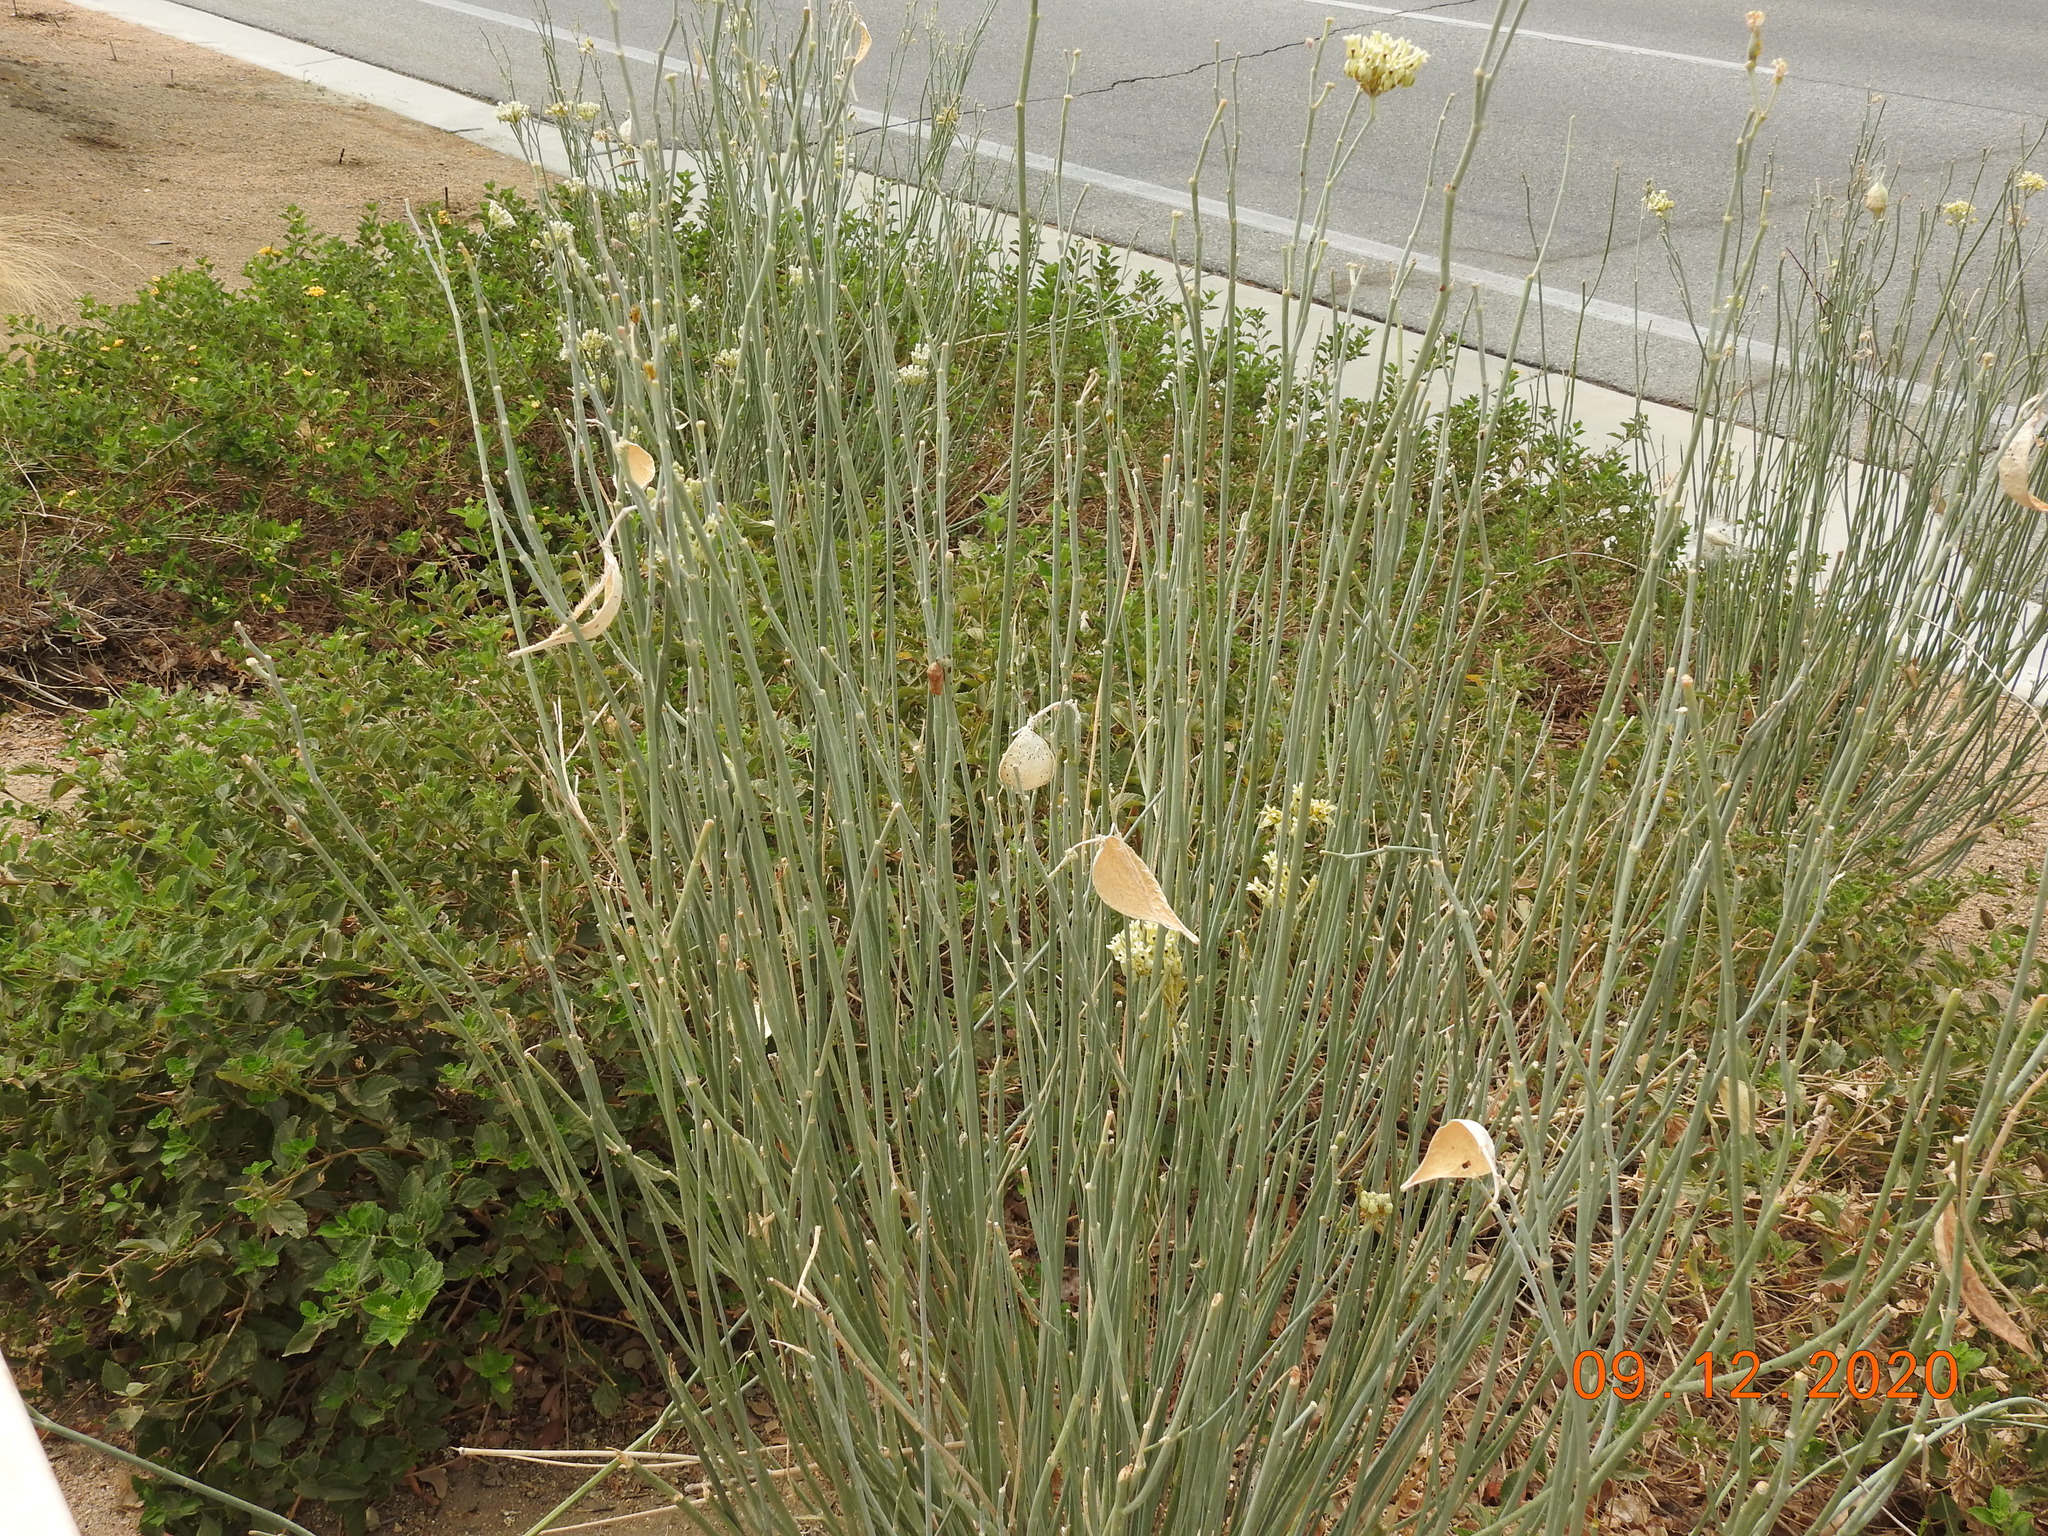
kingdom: Animalia
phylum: Arthropoda
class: Insecta
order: Lepidoptera
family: Nymphalidae
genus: Danaus
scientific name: Danaus plexippus
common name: Monarch
